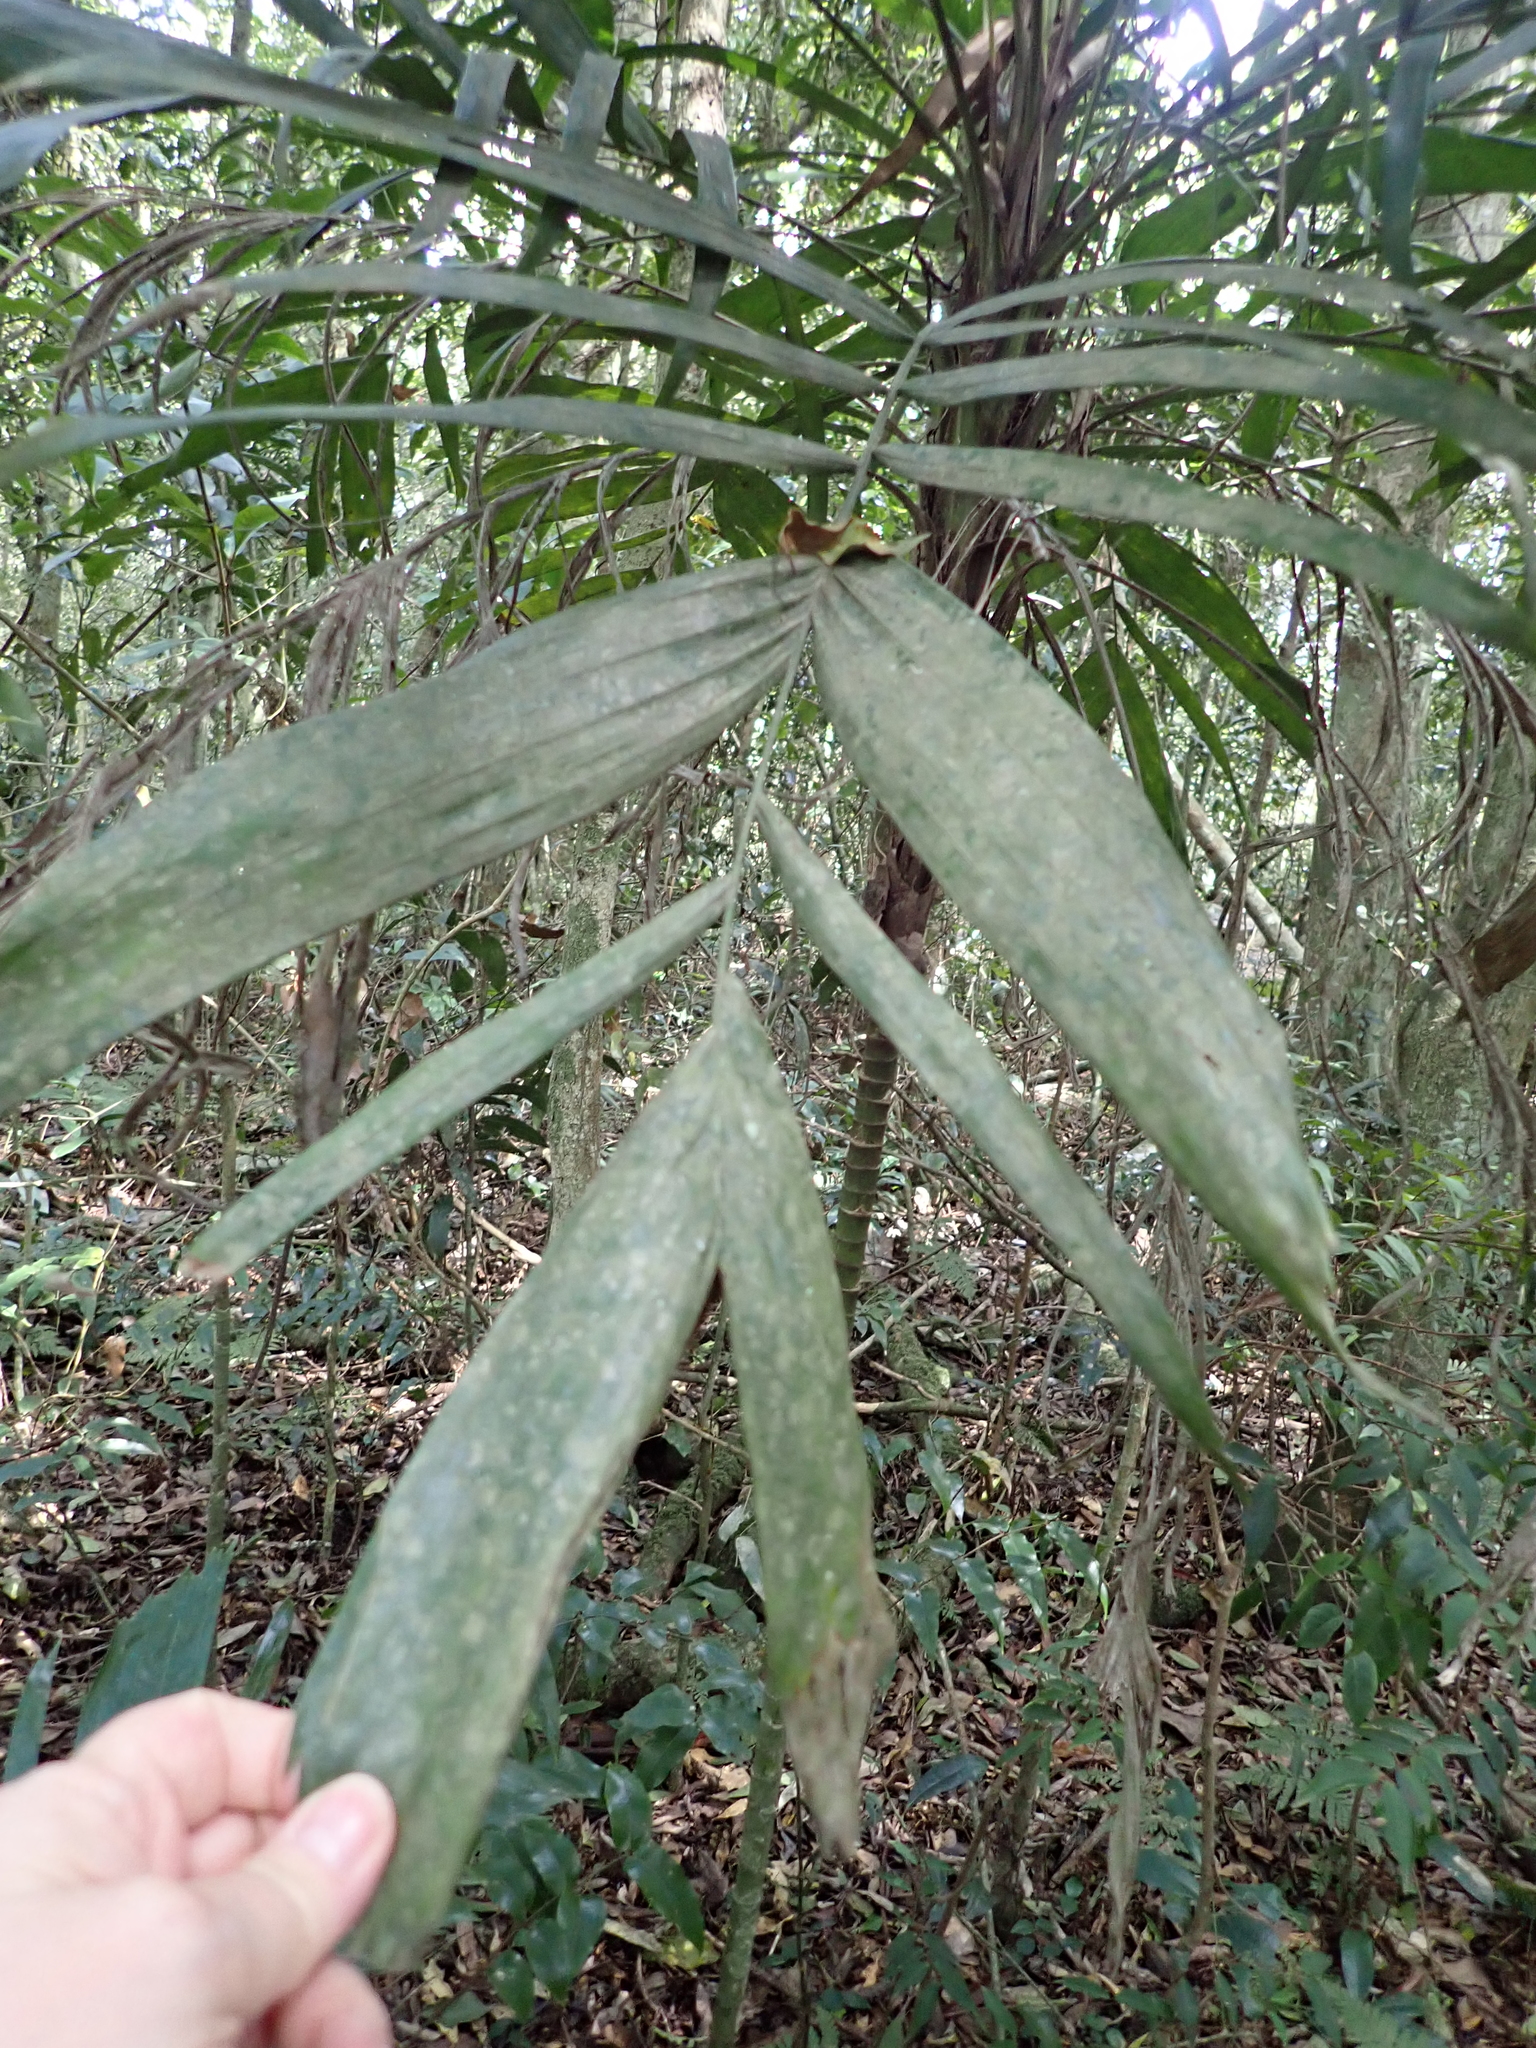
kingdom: Plantae
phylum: Tracheophyta
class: Liliopsida
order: Arecales
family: Arecaceae
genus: Linospadix
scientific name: Linospadix monostachyus
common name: Walking-stick palm
